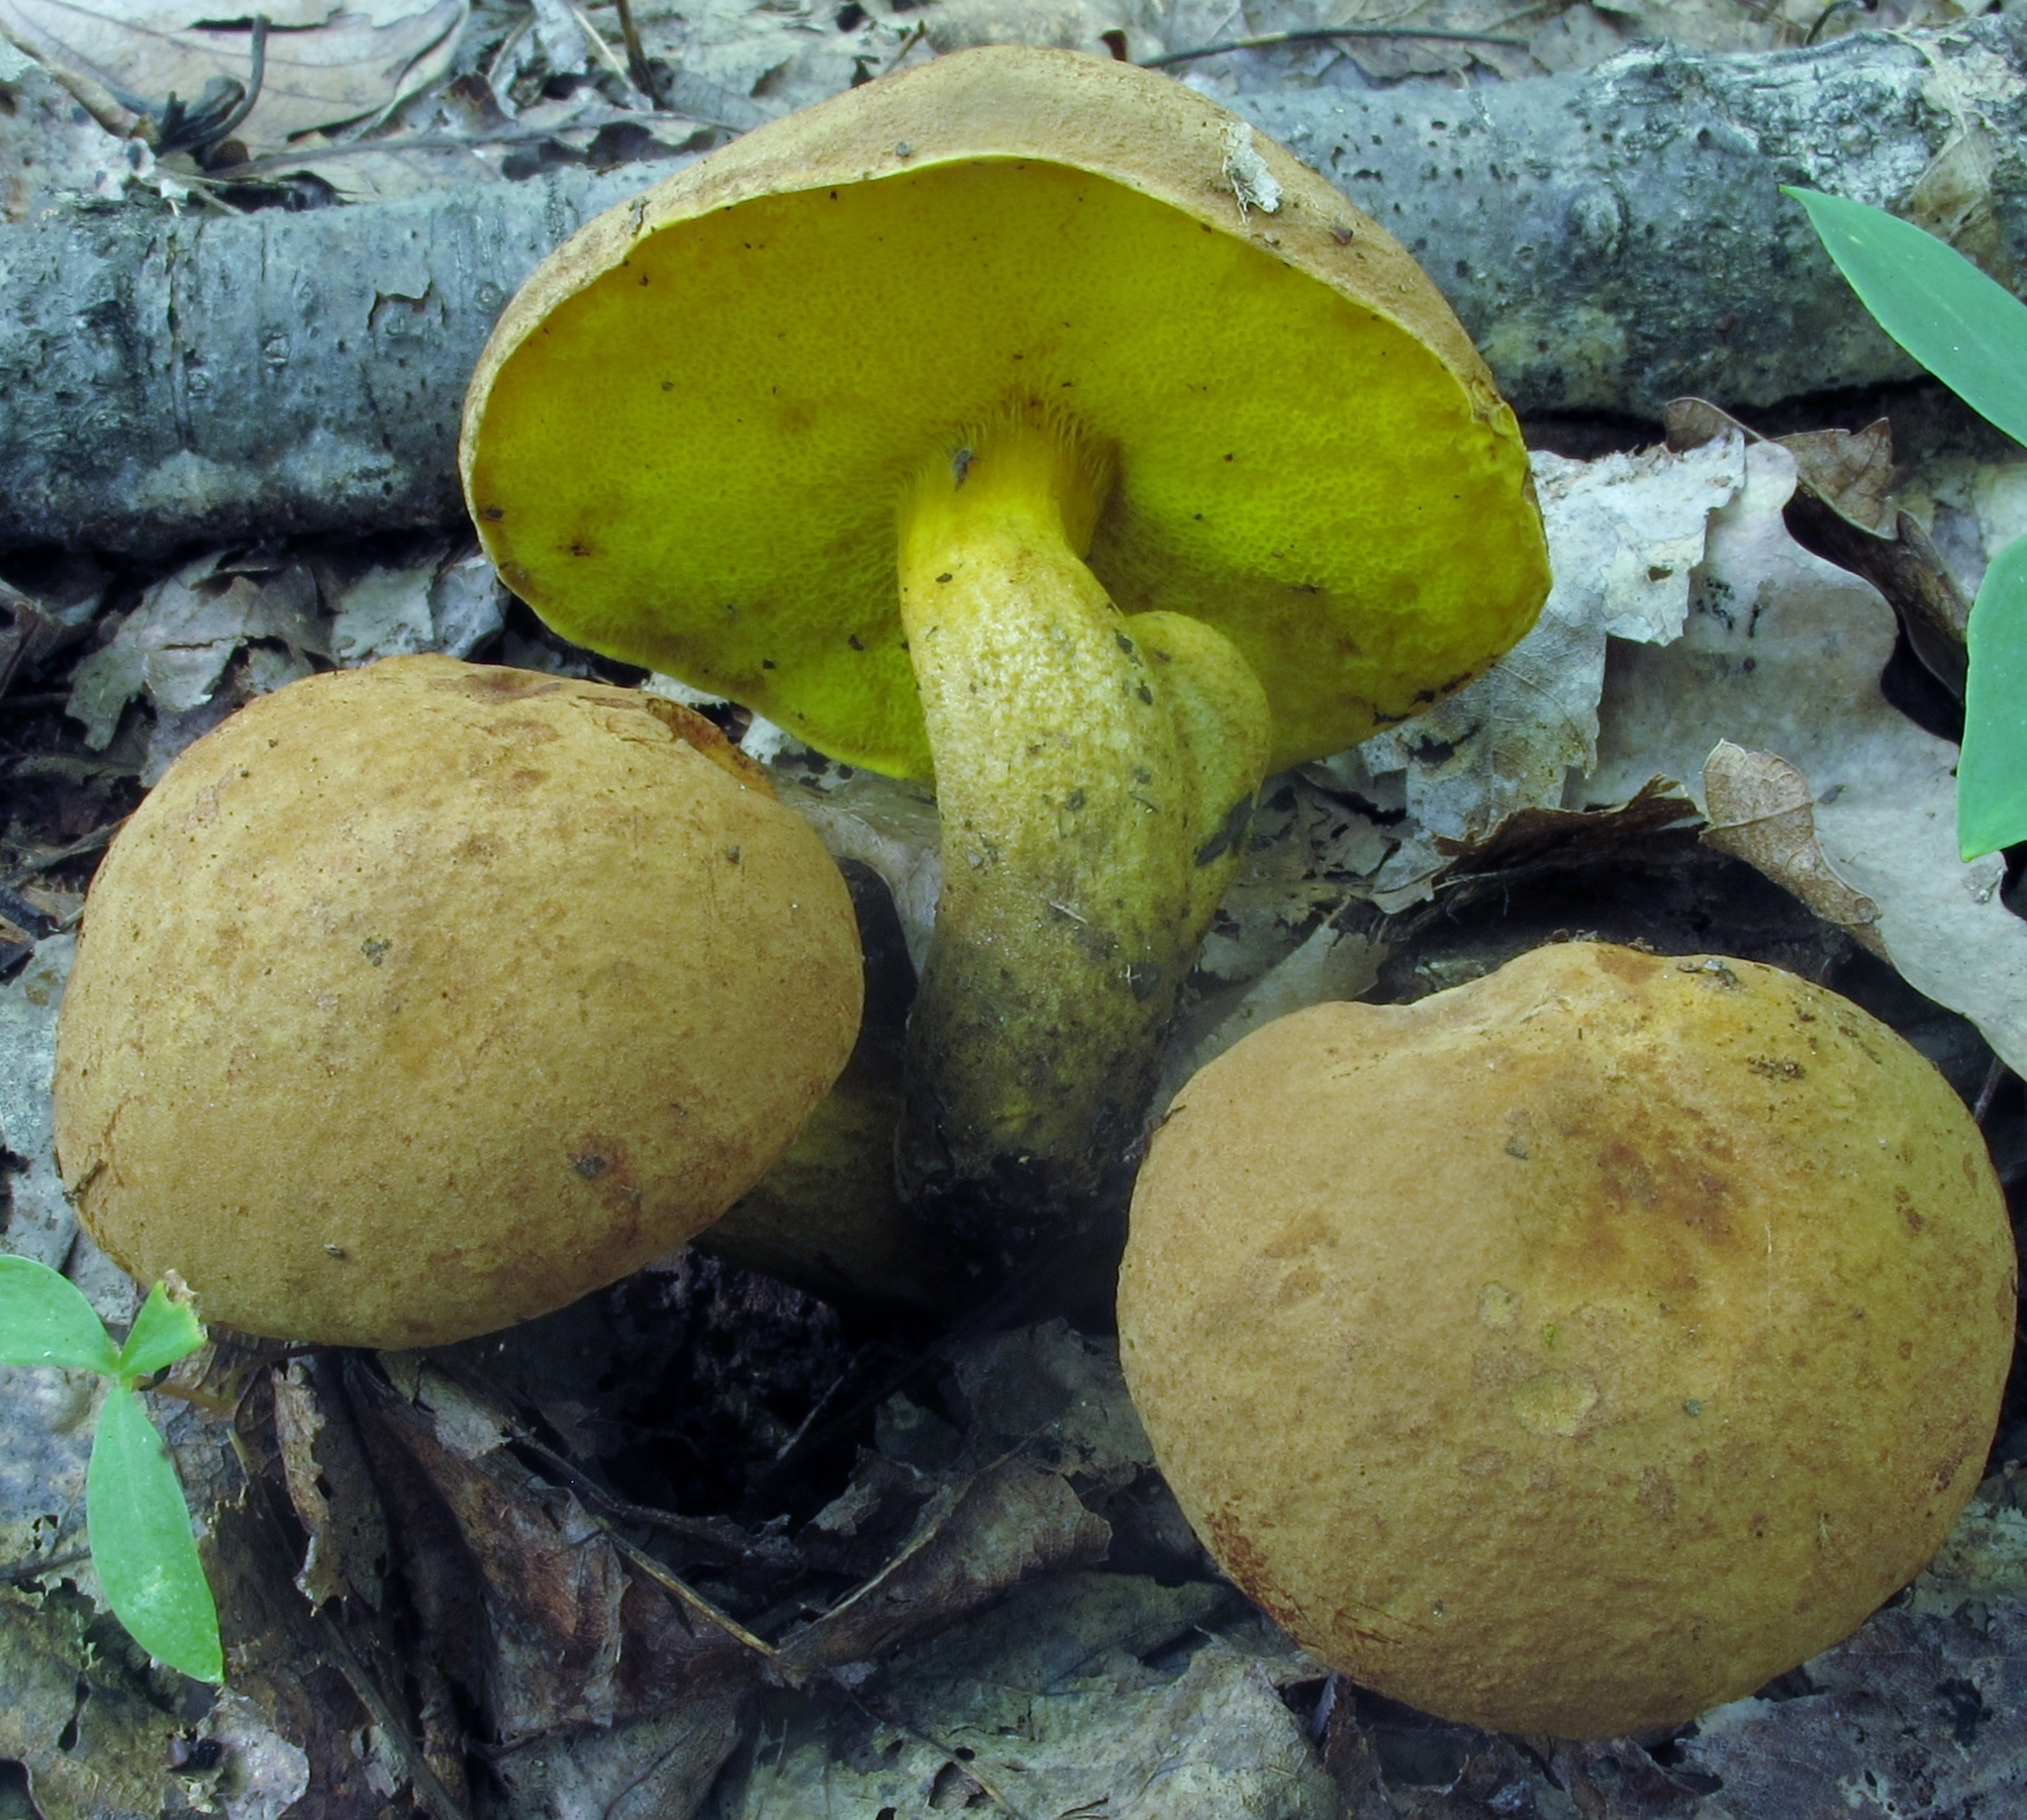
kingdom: Fungi
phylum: Basidiomycota
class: Agaricomycetes
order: Boletales
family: Boletaceae
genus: Aureoboletus
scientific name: Aureoboletus innixus
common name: Clustered brown bolete
